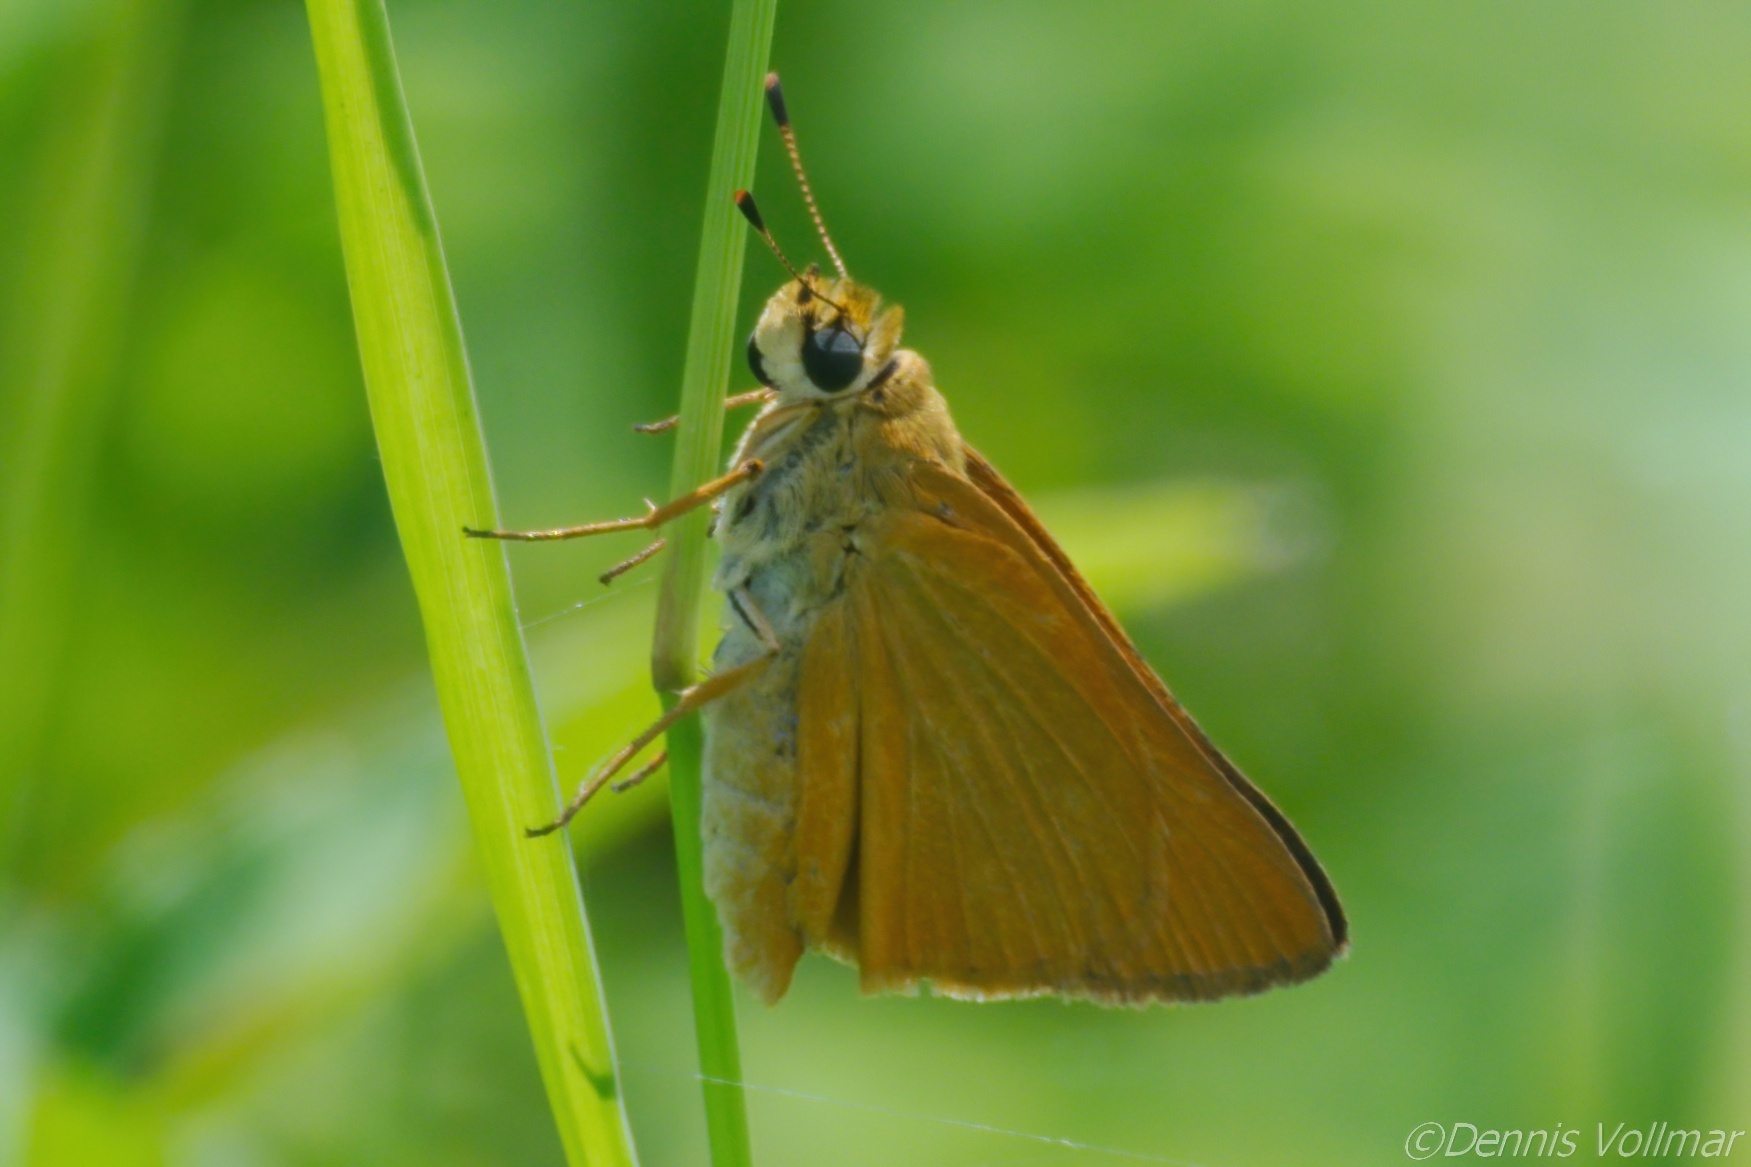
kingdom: Animalia
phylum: Arthropoda
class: Insecta
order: Lepidoptera
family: Hesperiidae
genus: Atrytone
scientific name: Atrytone delaware
